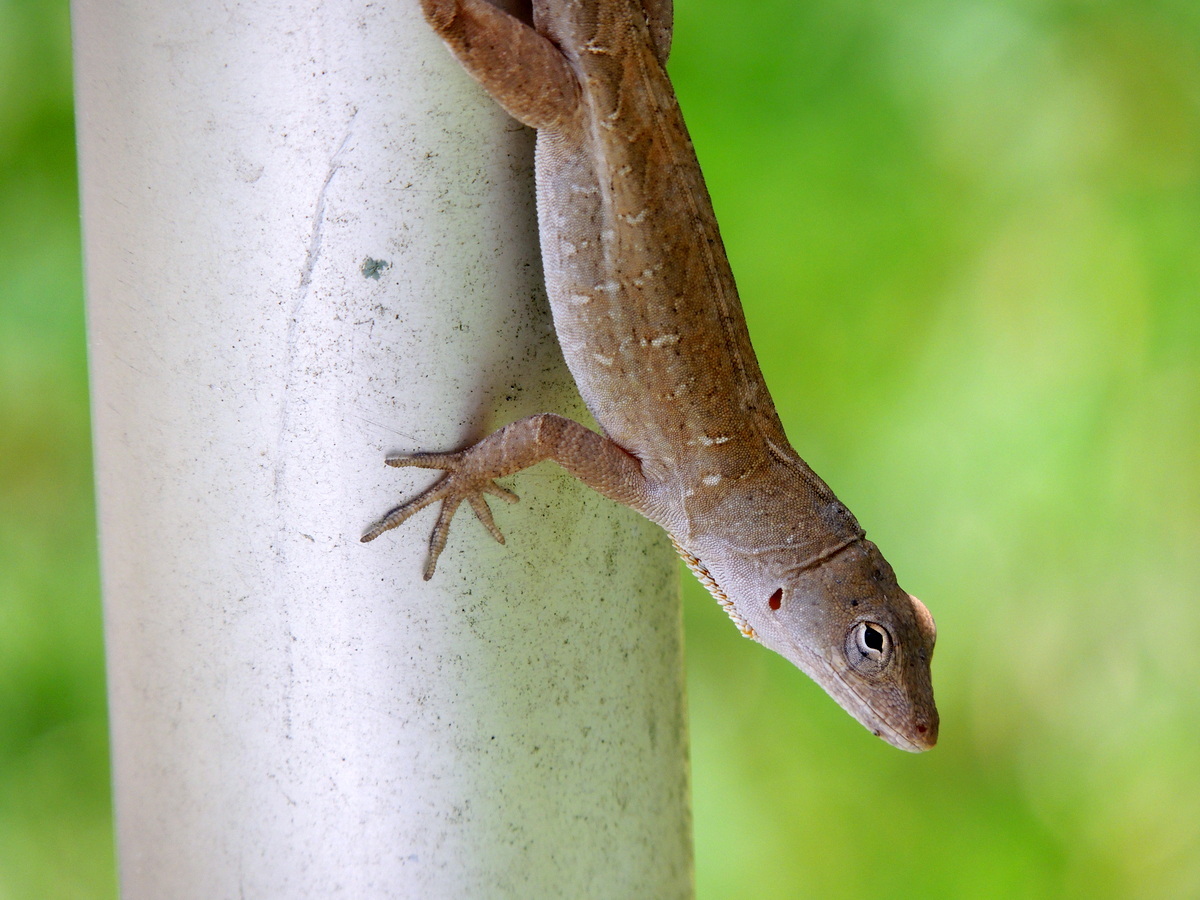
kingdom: Animalia
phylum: Chordata
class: Squamata
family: Dactyloidae
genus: Anolis
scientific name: Anolis sagrei
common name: Brown anole
